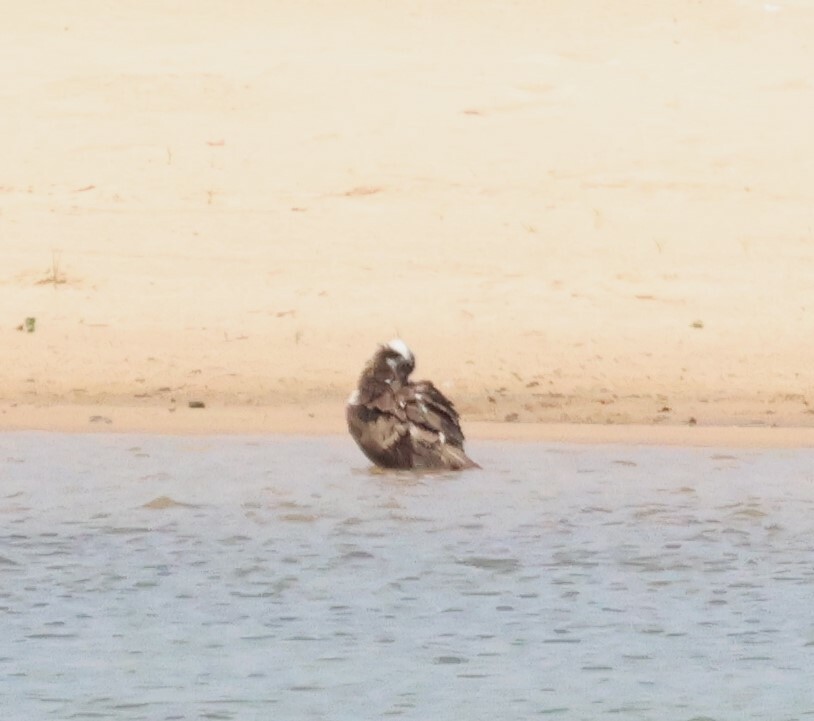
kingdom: Animalia
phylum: Chordata
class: Aves
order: Accipitriformes
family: Pandionidae
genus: Pandion
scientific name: Pandion haliaetus
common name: Osprey
